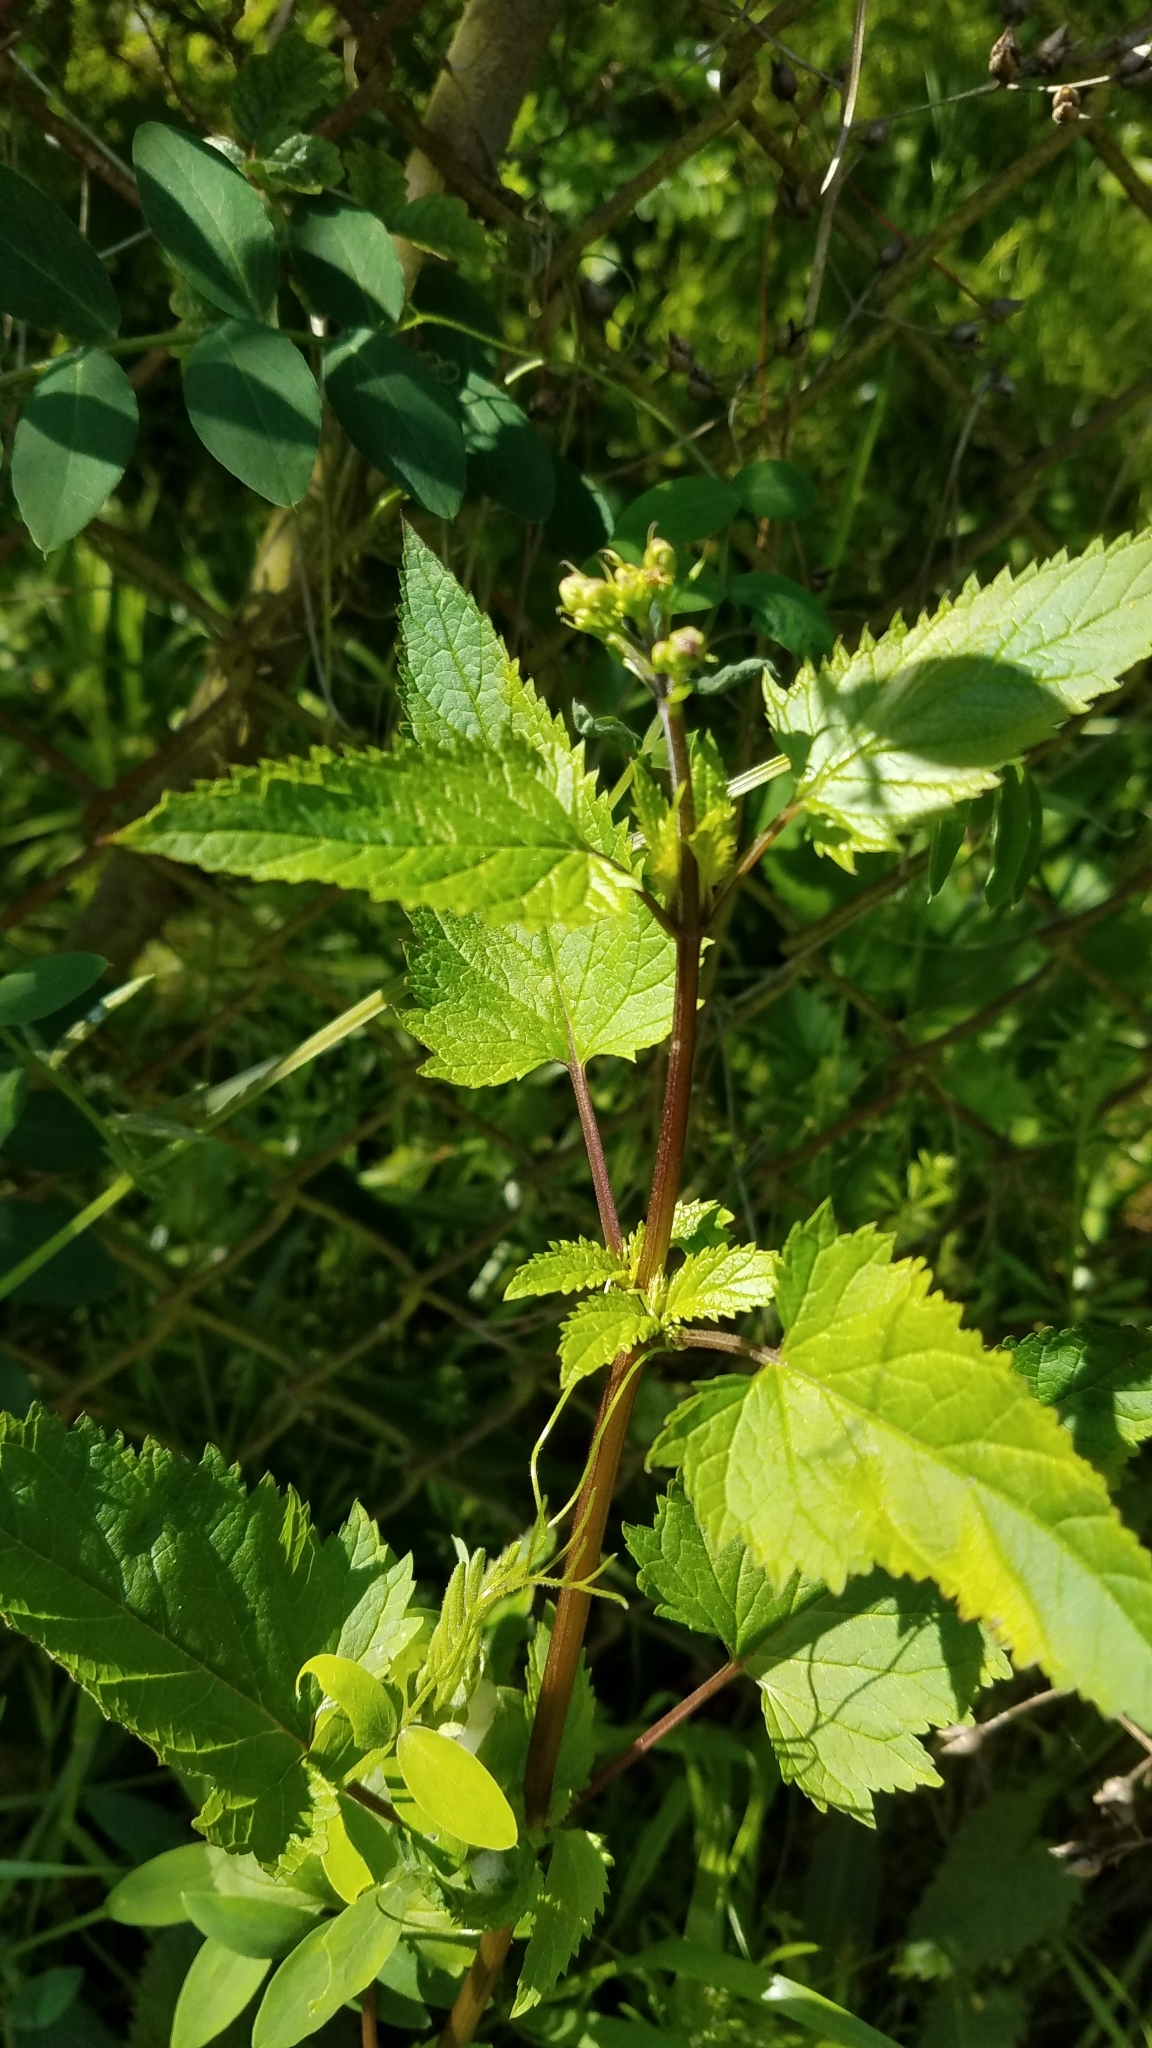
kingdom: Plantae
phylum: Tracheophyta
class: Magnoliopsida
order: Lamiales
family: Scrophulariaceae
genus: Scrophularia
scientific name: Scrophularia californica
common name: California figwort
